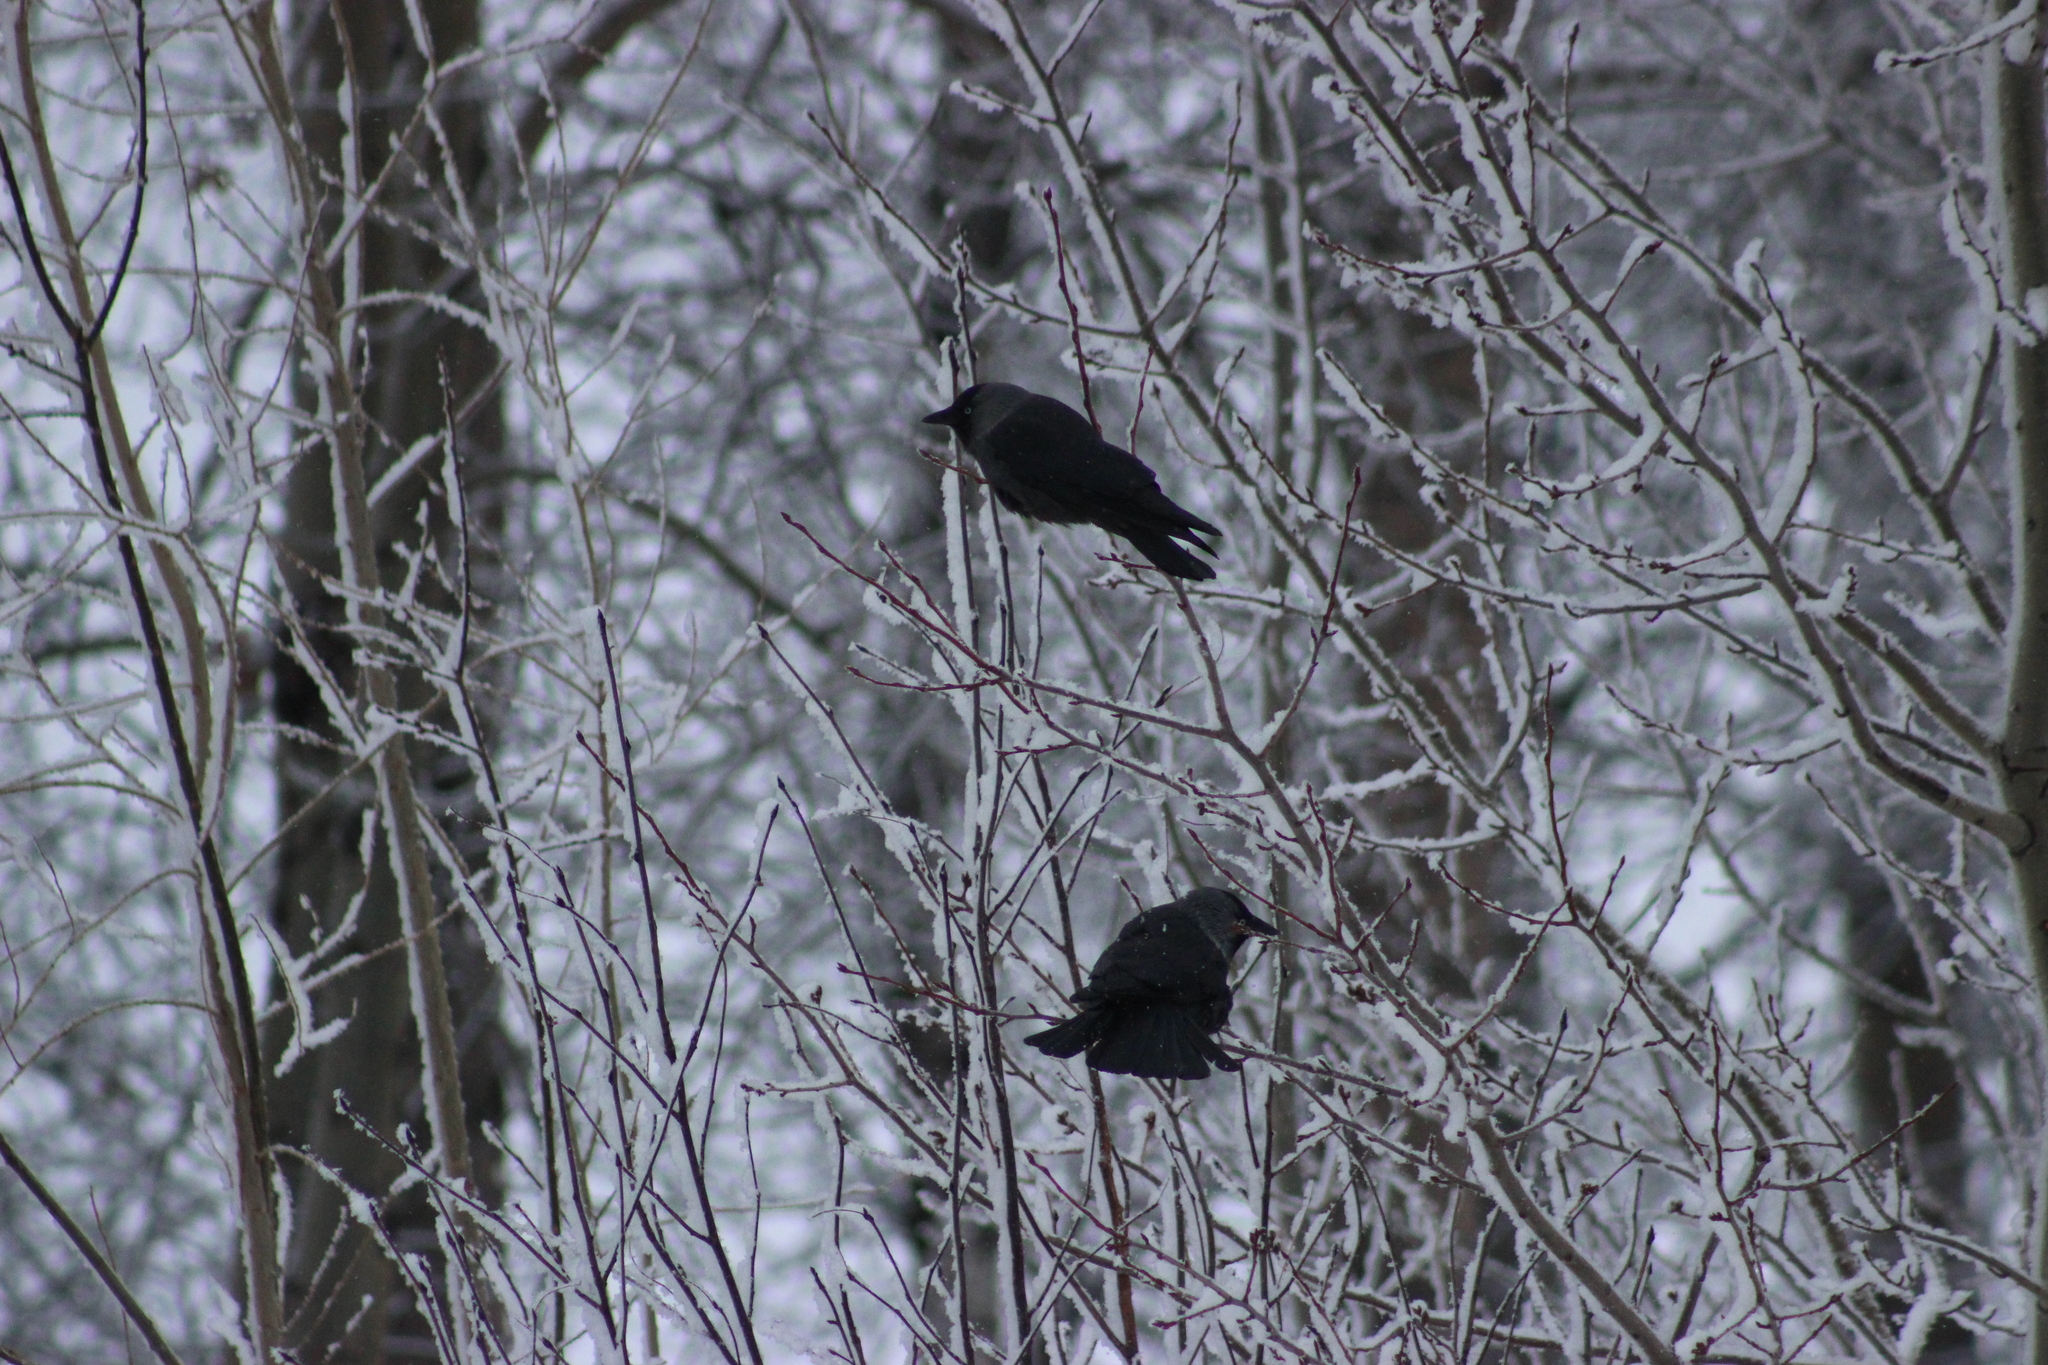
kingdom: Animalia
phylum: Chordata
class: Aves
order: Passeriformes
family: Corvidae
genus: Coloeus
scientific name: Coloeus monedula
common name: Western jackdaw
